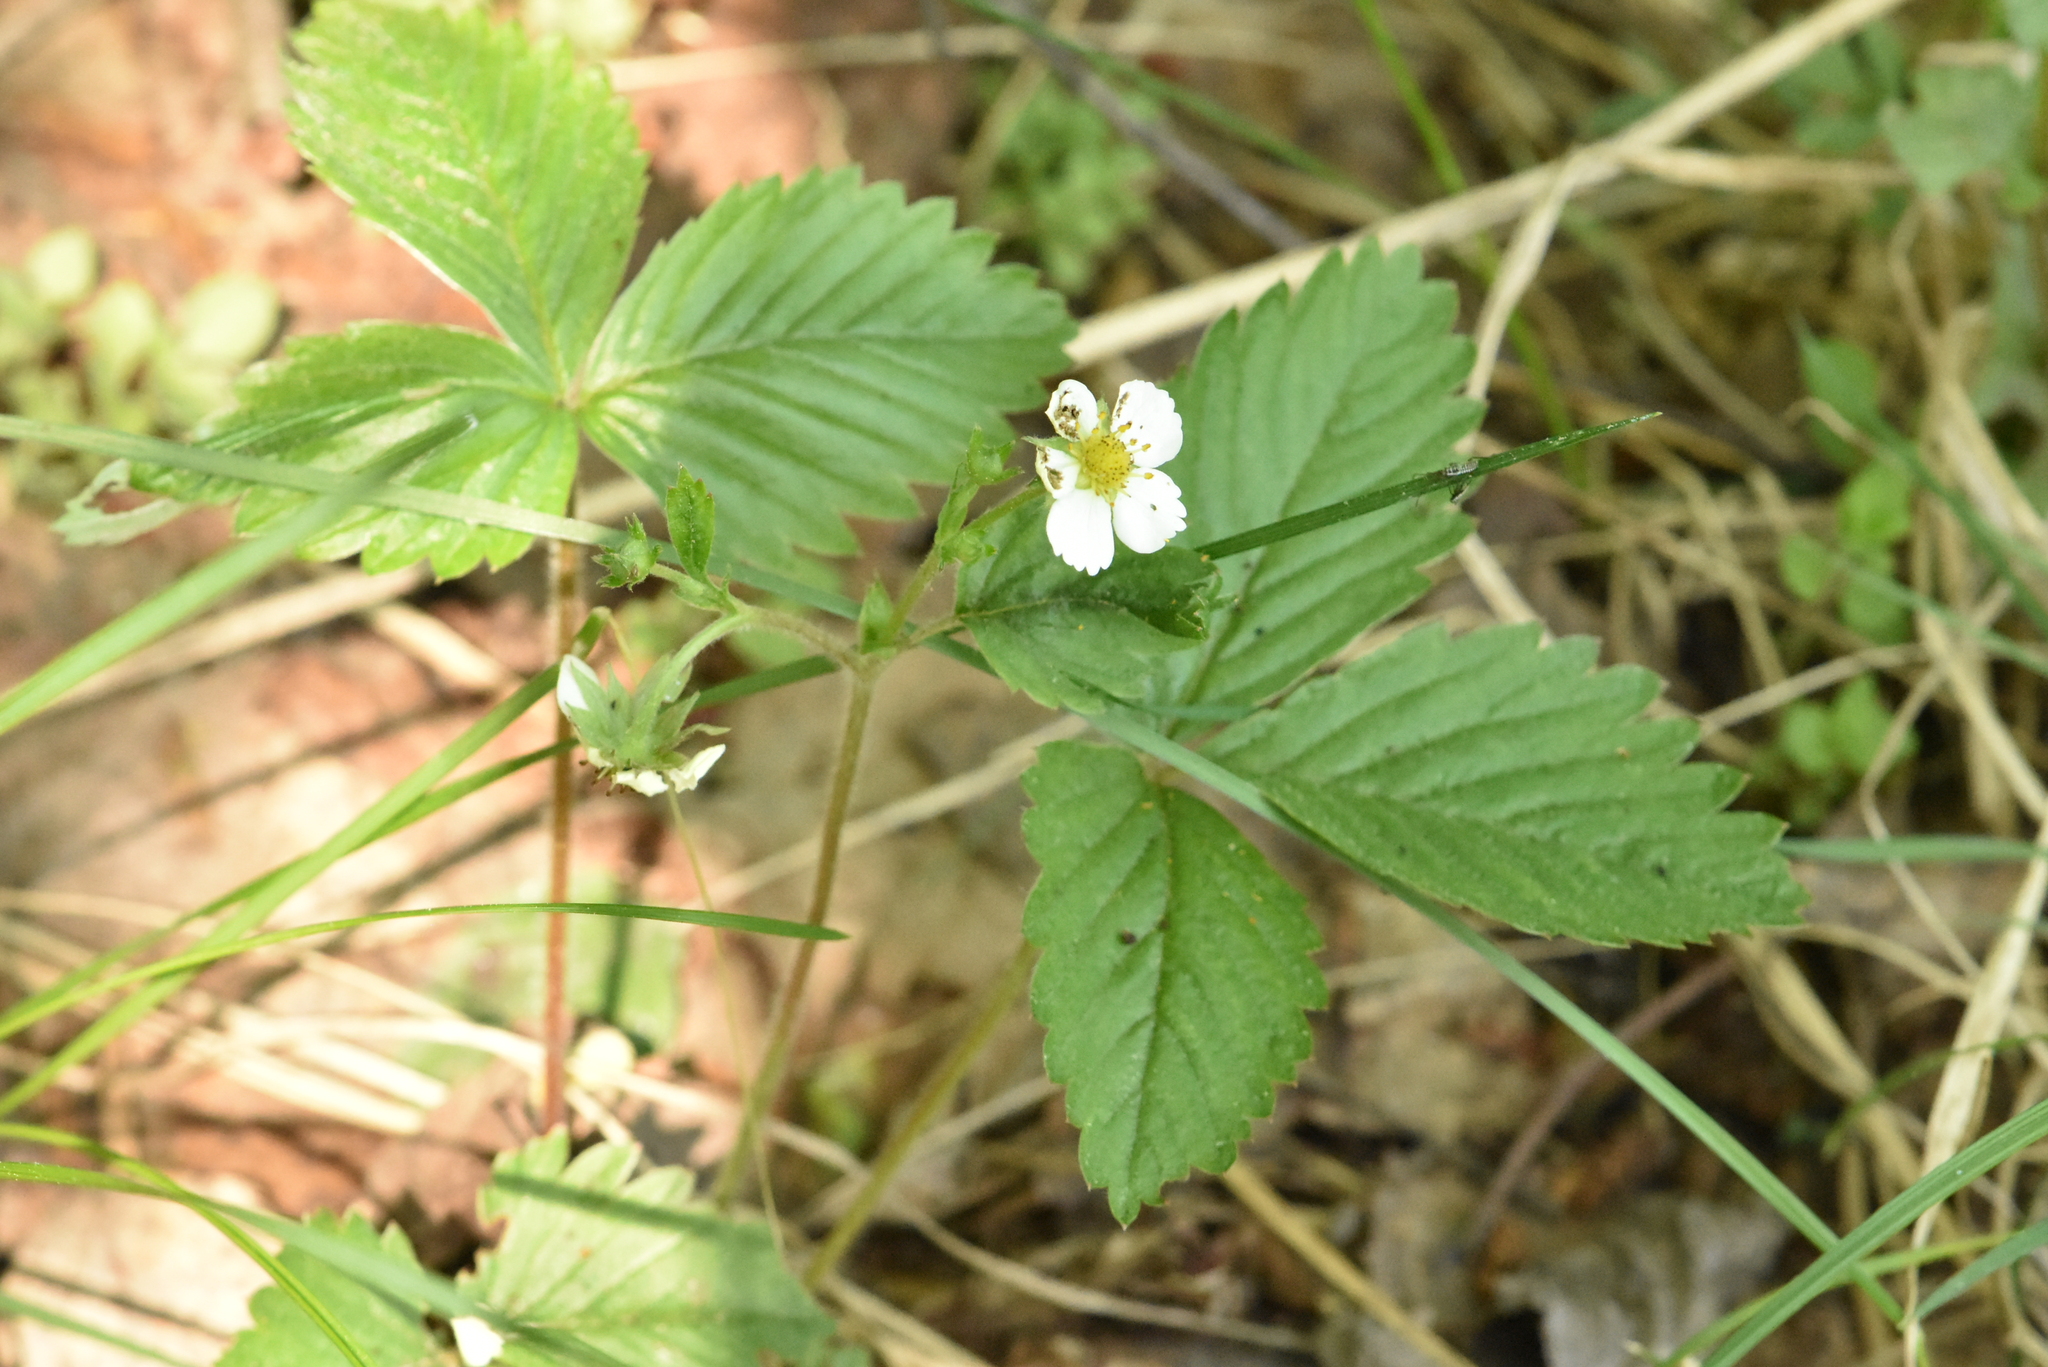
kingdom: Plantae
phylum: Tracheophyta
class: Magnoliopsida
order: Rosales
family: Rosaceae
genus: Fragaria
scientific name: Fragaria vesca
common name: Wild strawberry
